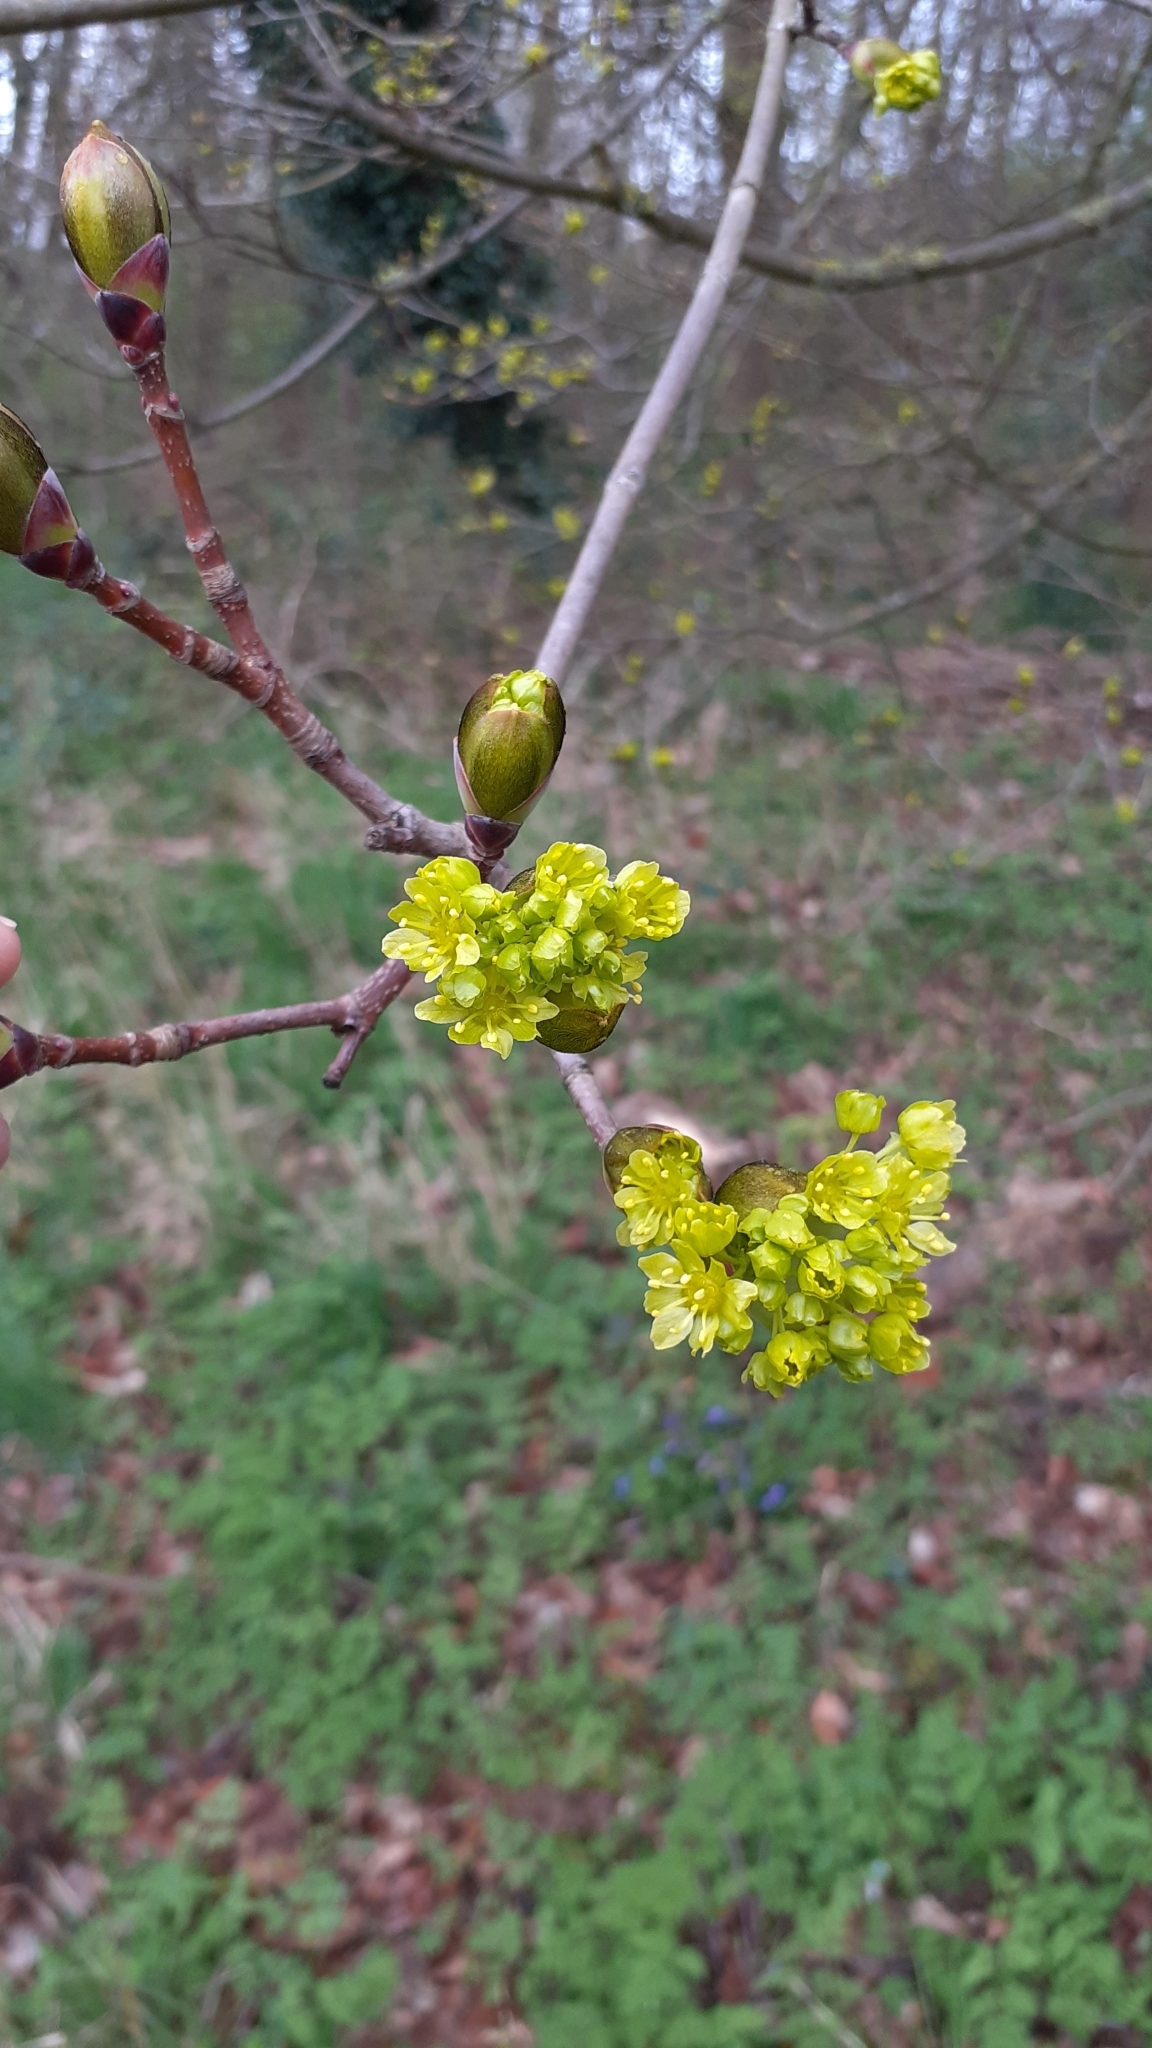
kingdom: Plantae
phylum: Tracheophyta
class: Magnoliopsida
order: Sapindales
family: Sapindaceae
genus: Acer
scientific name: Acer platanoides
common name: Norway maple
